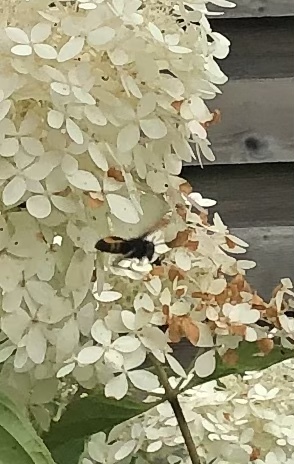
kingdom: Animalia
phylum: Arthropoda
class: Insecta
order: Hymenoptera
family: Vespidae
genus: Vespa
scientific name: Vespa velutina
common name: Asian hornet
